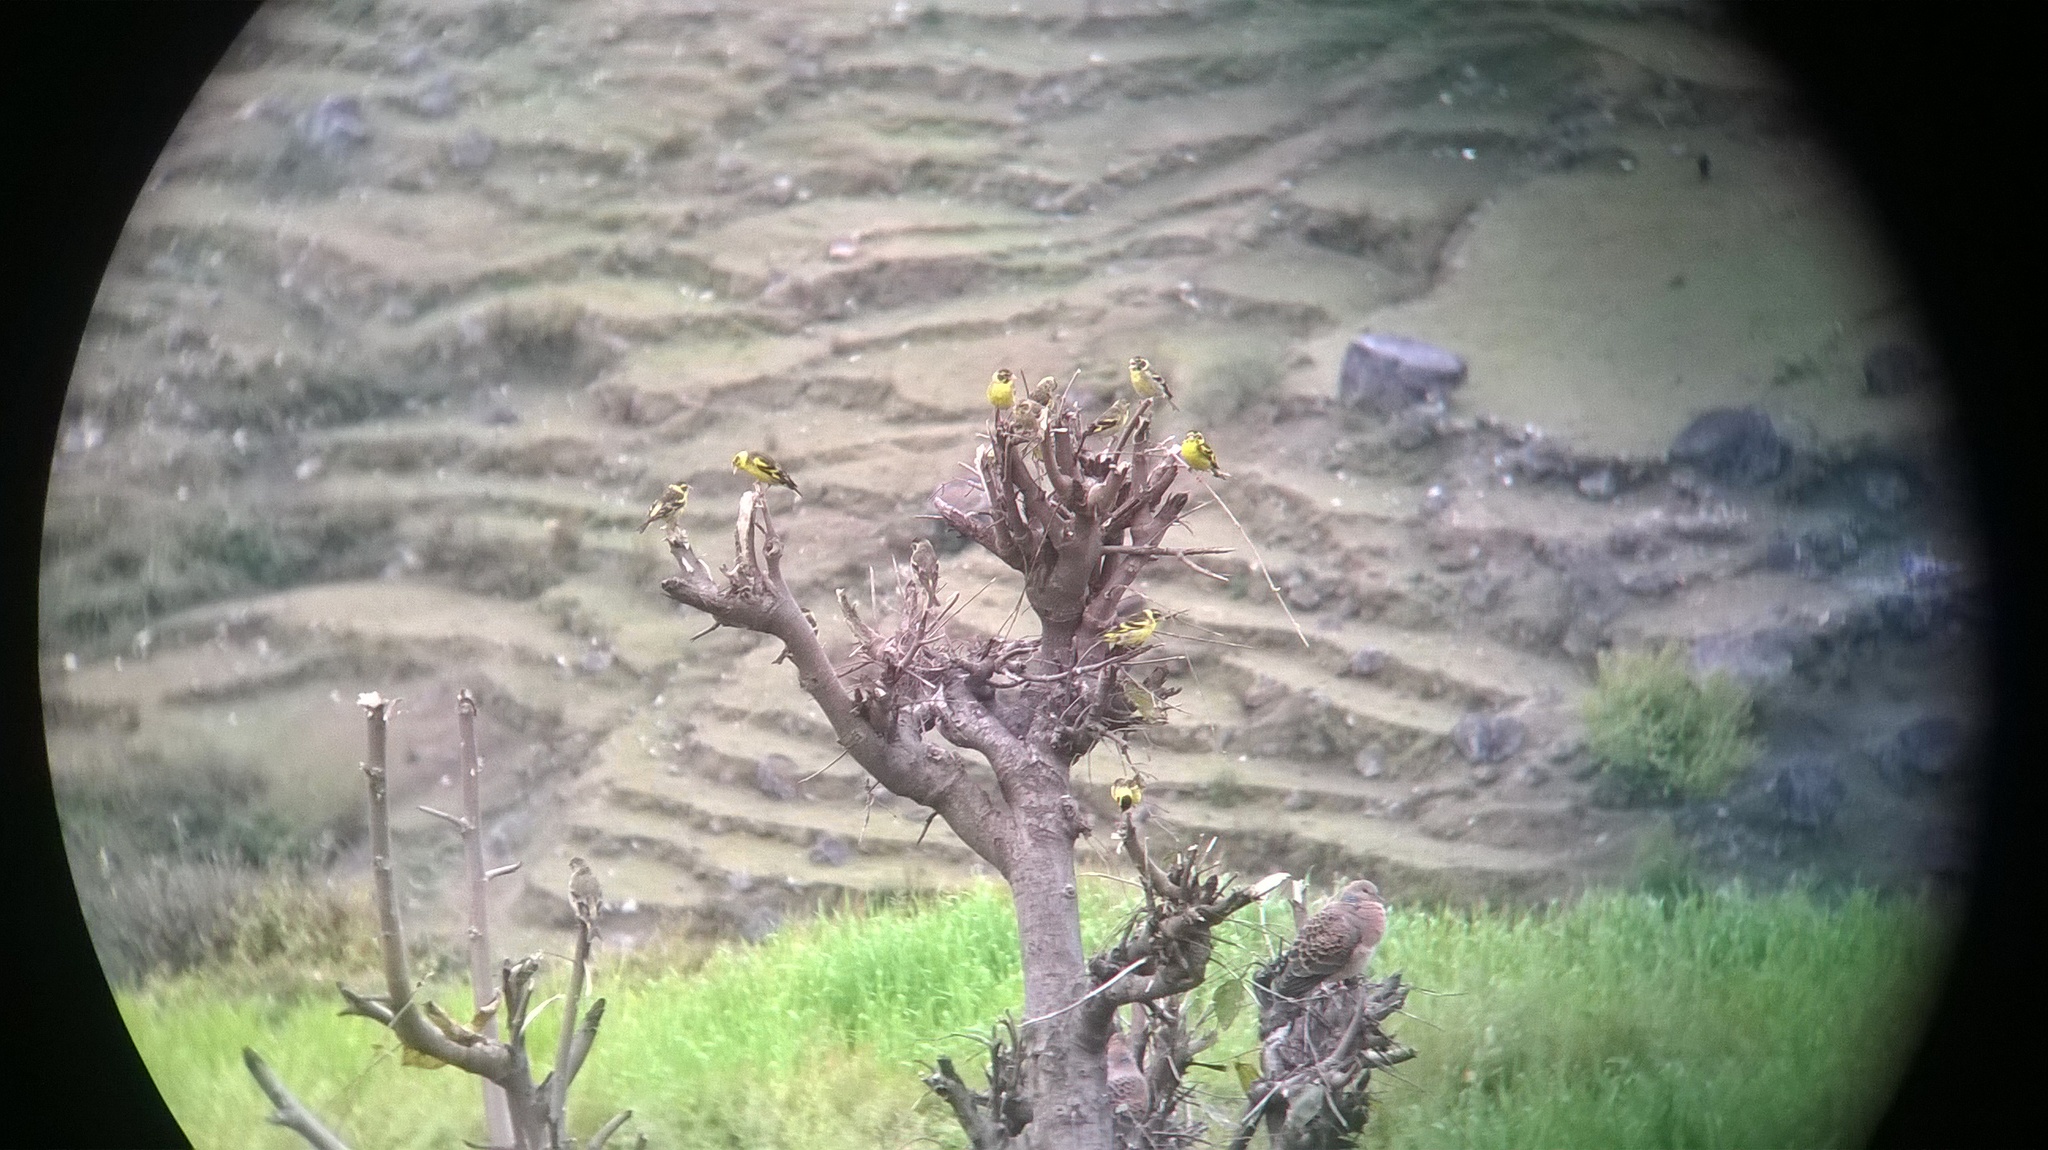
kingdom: Animalia
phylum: Chordata
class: Aves
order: Passeriformes
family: Fringillidae
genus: Chloris
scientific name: Chloris spinoides
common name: Yellow-breasted greenfinch
